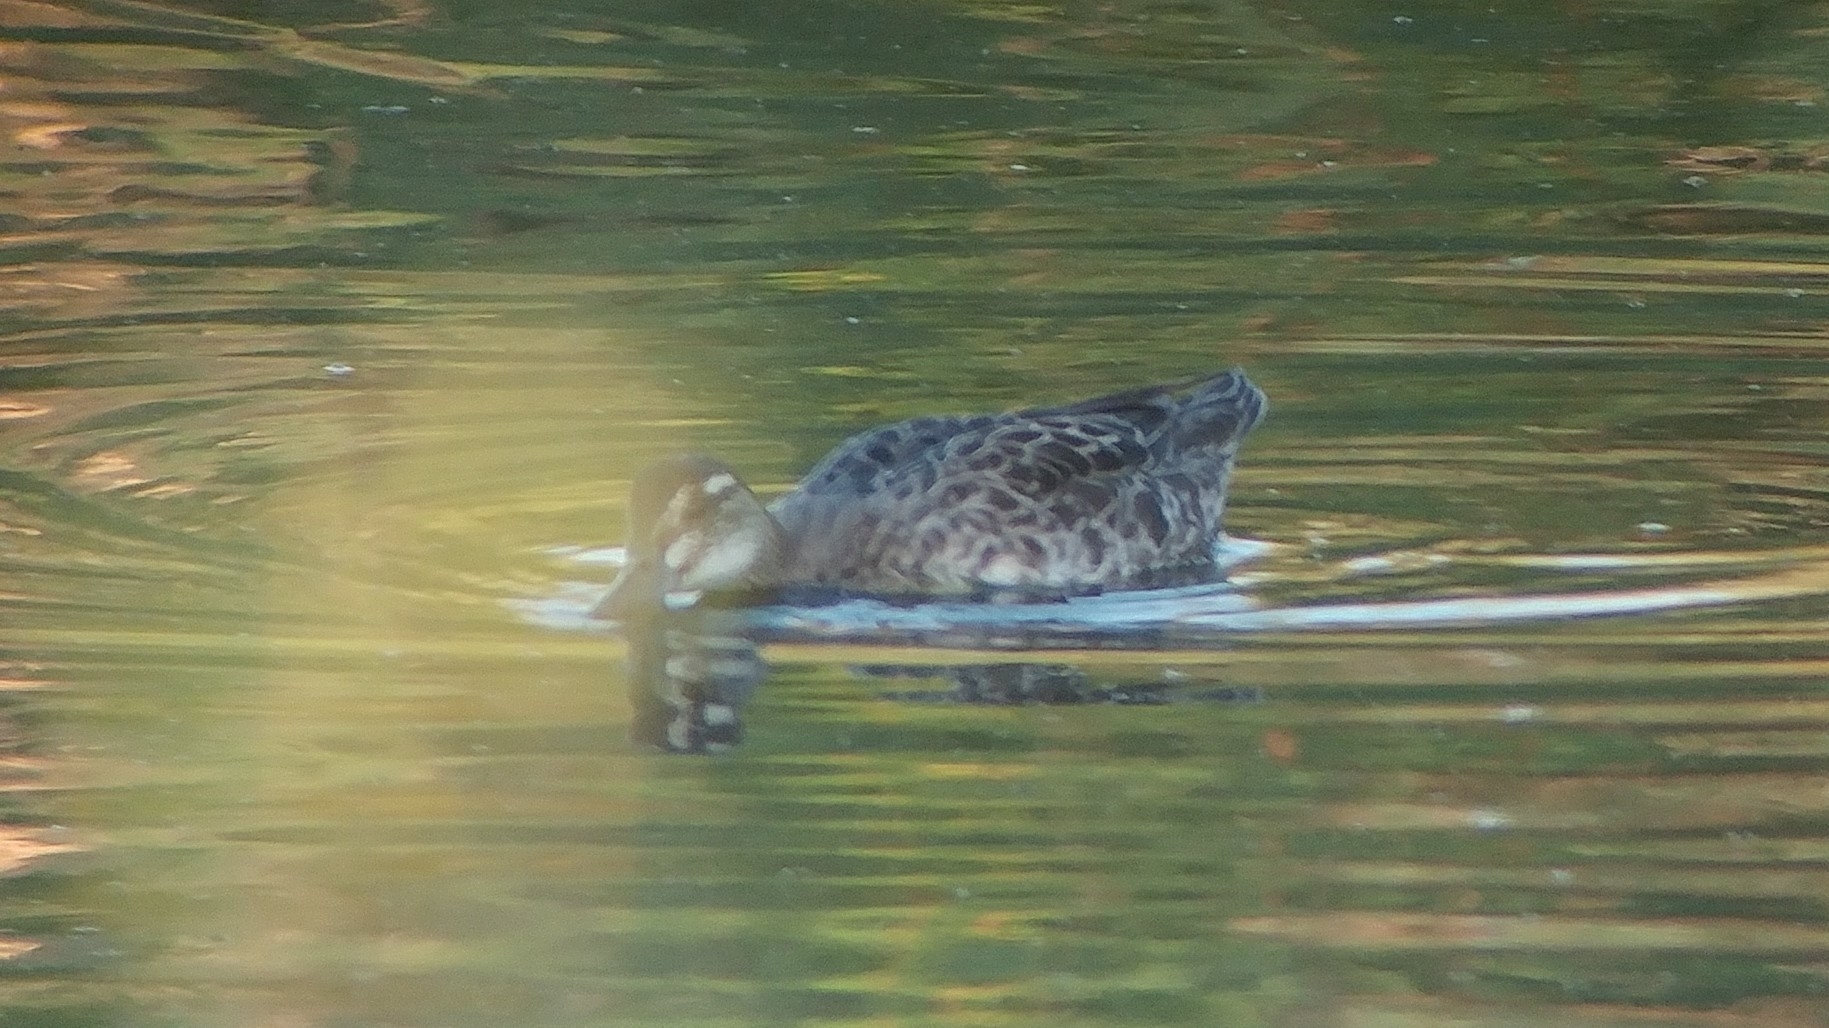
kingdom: Animalia
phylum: Chordata
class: Aves
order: Anseriformes
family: Anatidae
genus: Spatula
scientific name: Spatula querquedula
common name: Garganey
